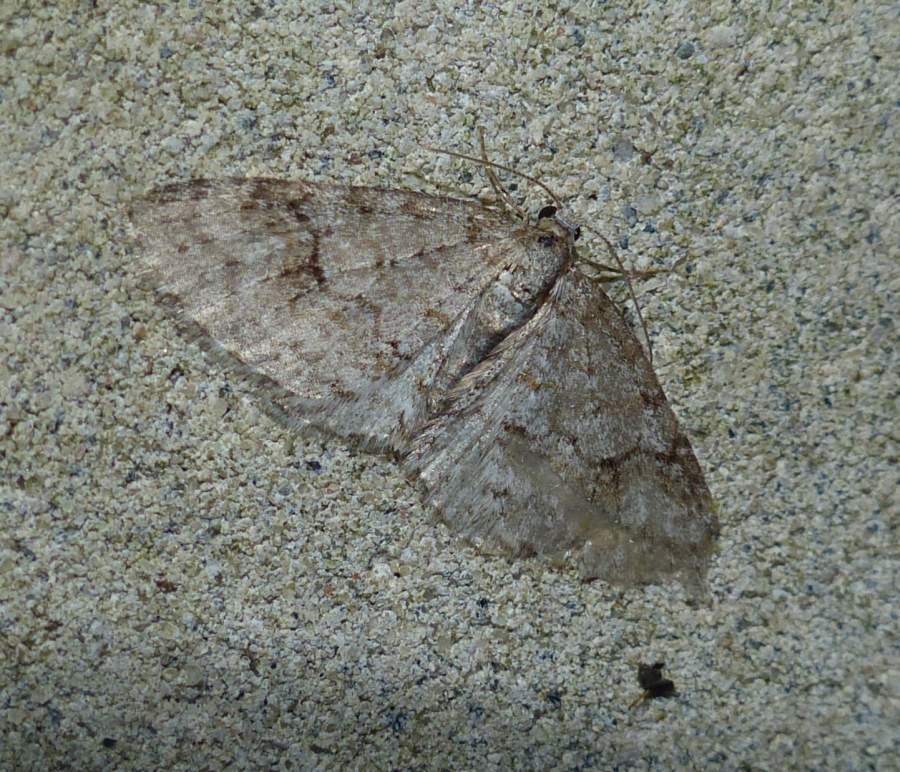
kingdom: Animalia
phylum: Arthropoda
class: Insecta
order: Lepidoptera
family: Geometridae
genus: Venusia
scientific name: Venusia comptaria
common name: Brown-shaded carpet
